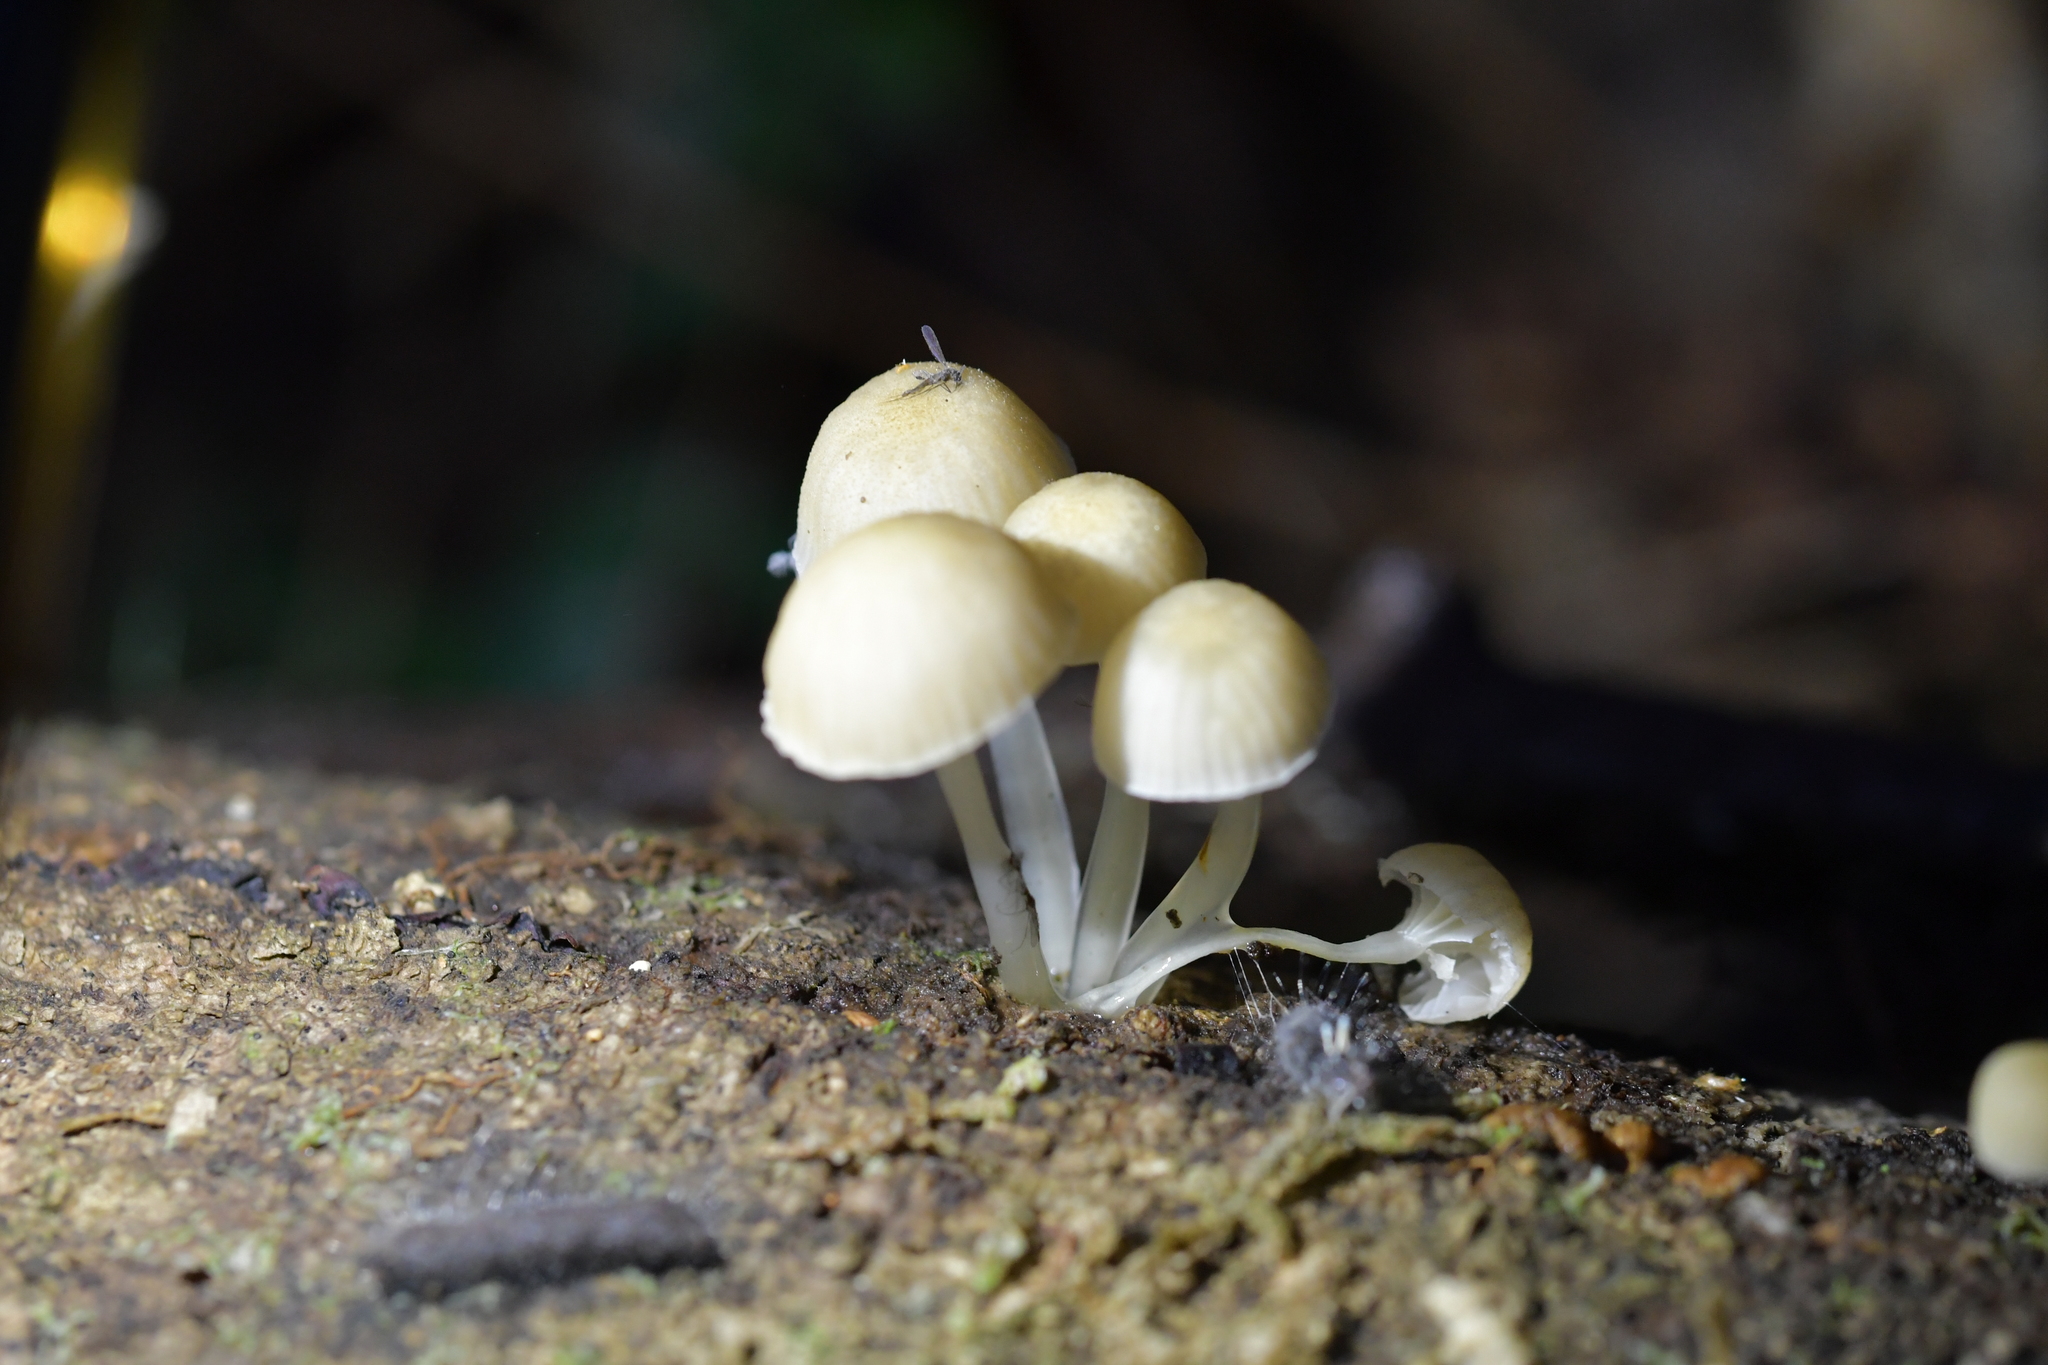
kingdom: Fungi
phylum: Basidiomycota
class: Agaricomycetes
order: Agaricales
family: Mycenaceae
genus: Roridomyces
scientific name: Roridomyces austrororidus
